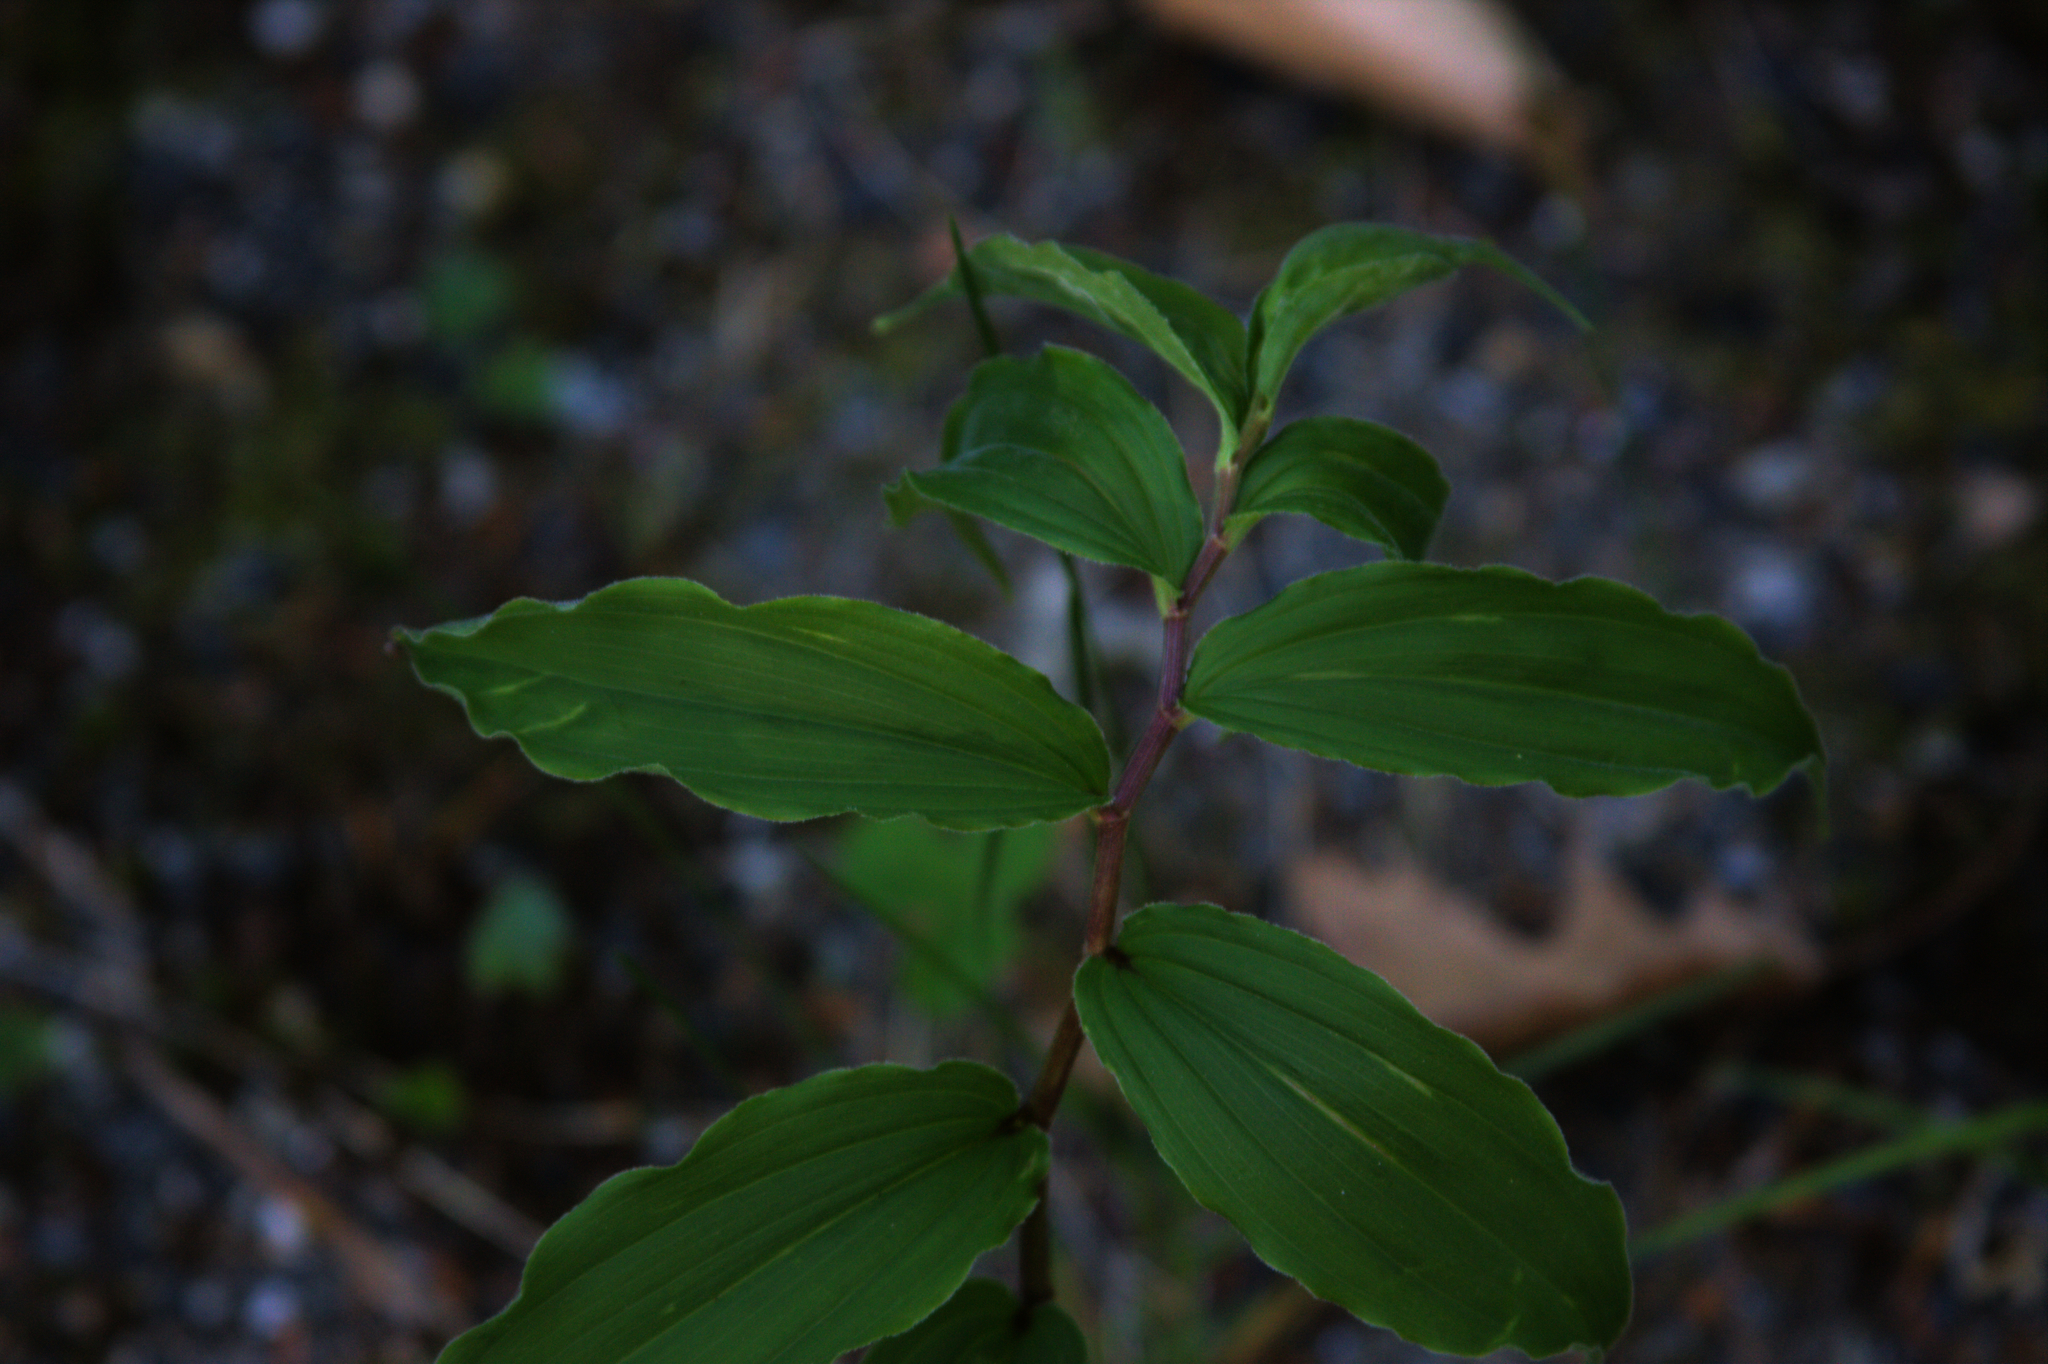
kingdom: Plantae
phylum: Tracheophyta
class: Liliopsida
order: Asparagales
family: Asparagaceae
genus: Maianthemum
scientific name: Maianthemum racemosum
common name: False spikenard
